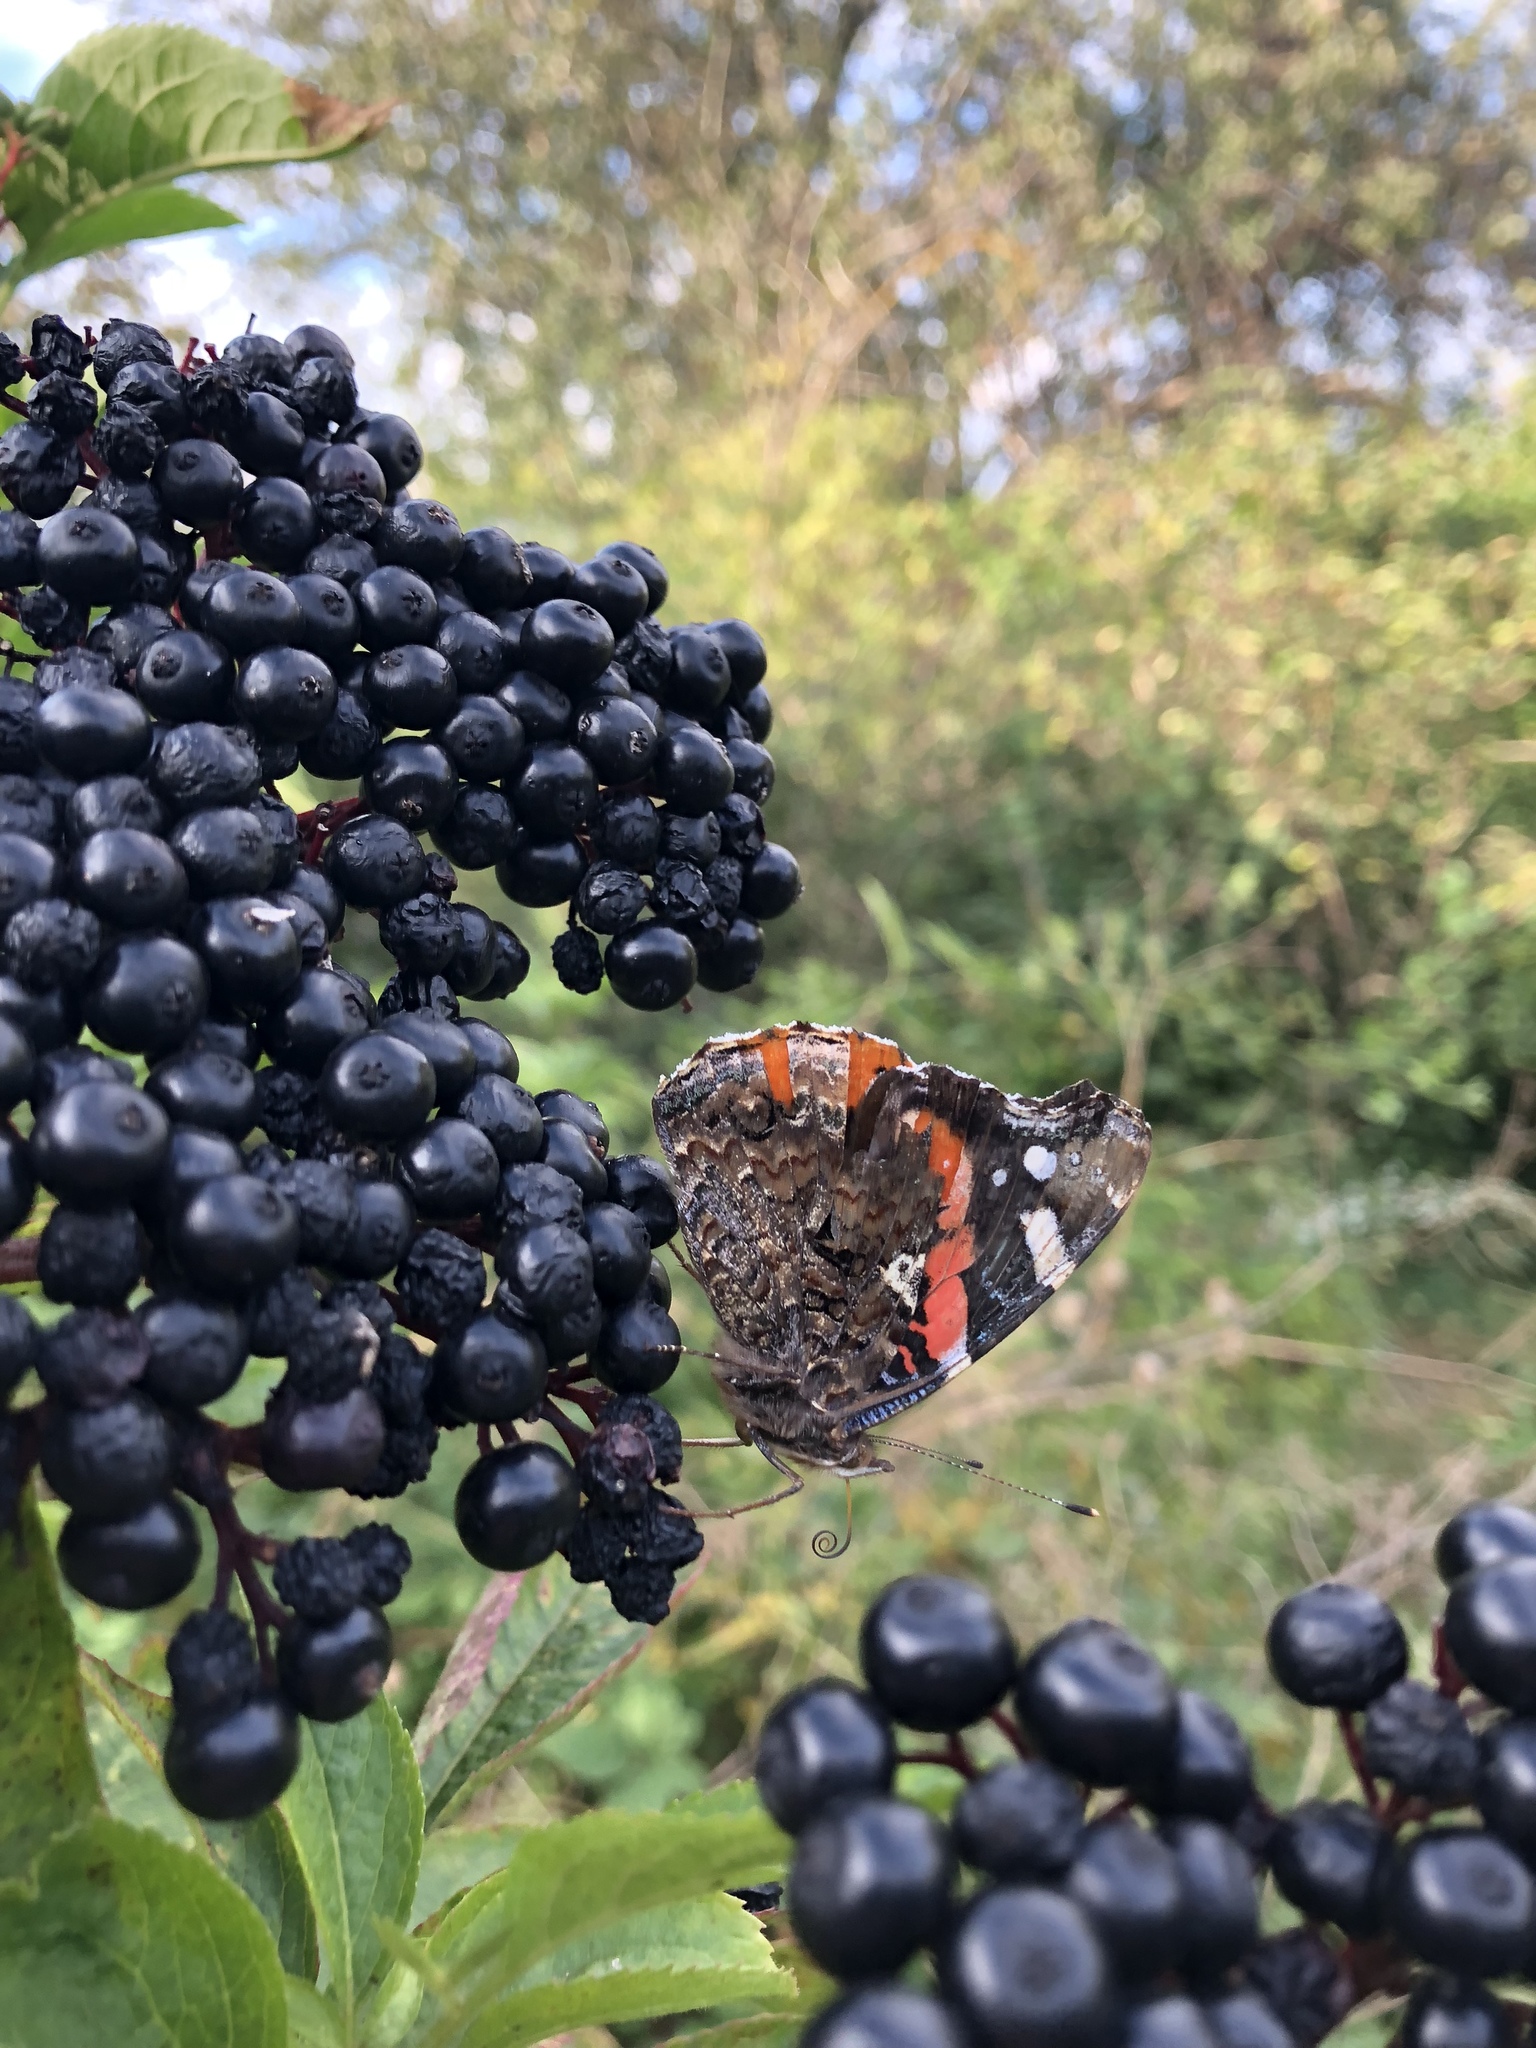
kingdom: Animalia
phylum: Arthropoda
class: Insecta
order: Lepidoptera
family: Nymphalidae
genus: Vanessa
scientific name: Vanessa atalanta
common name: Red admiral
